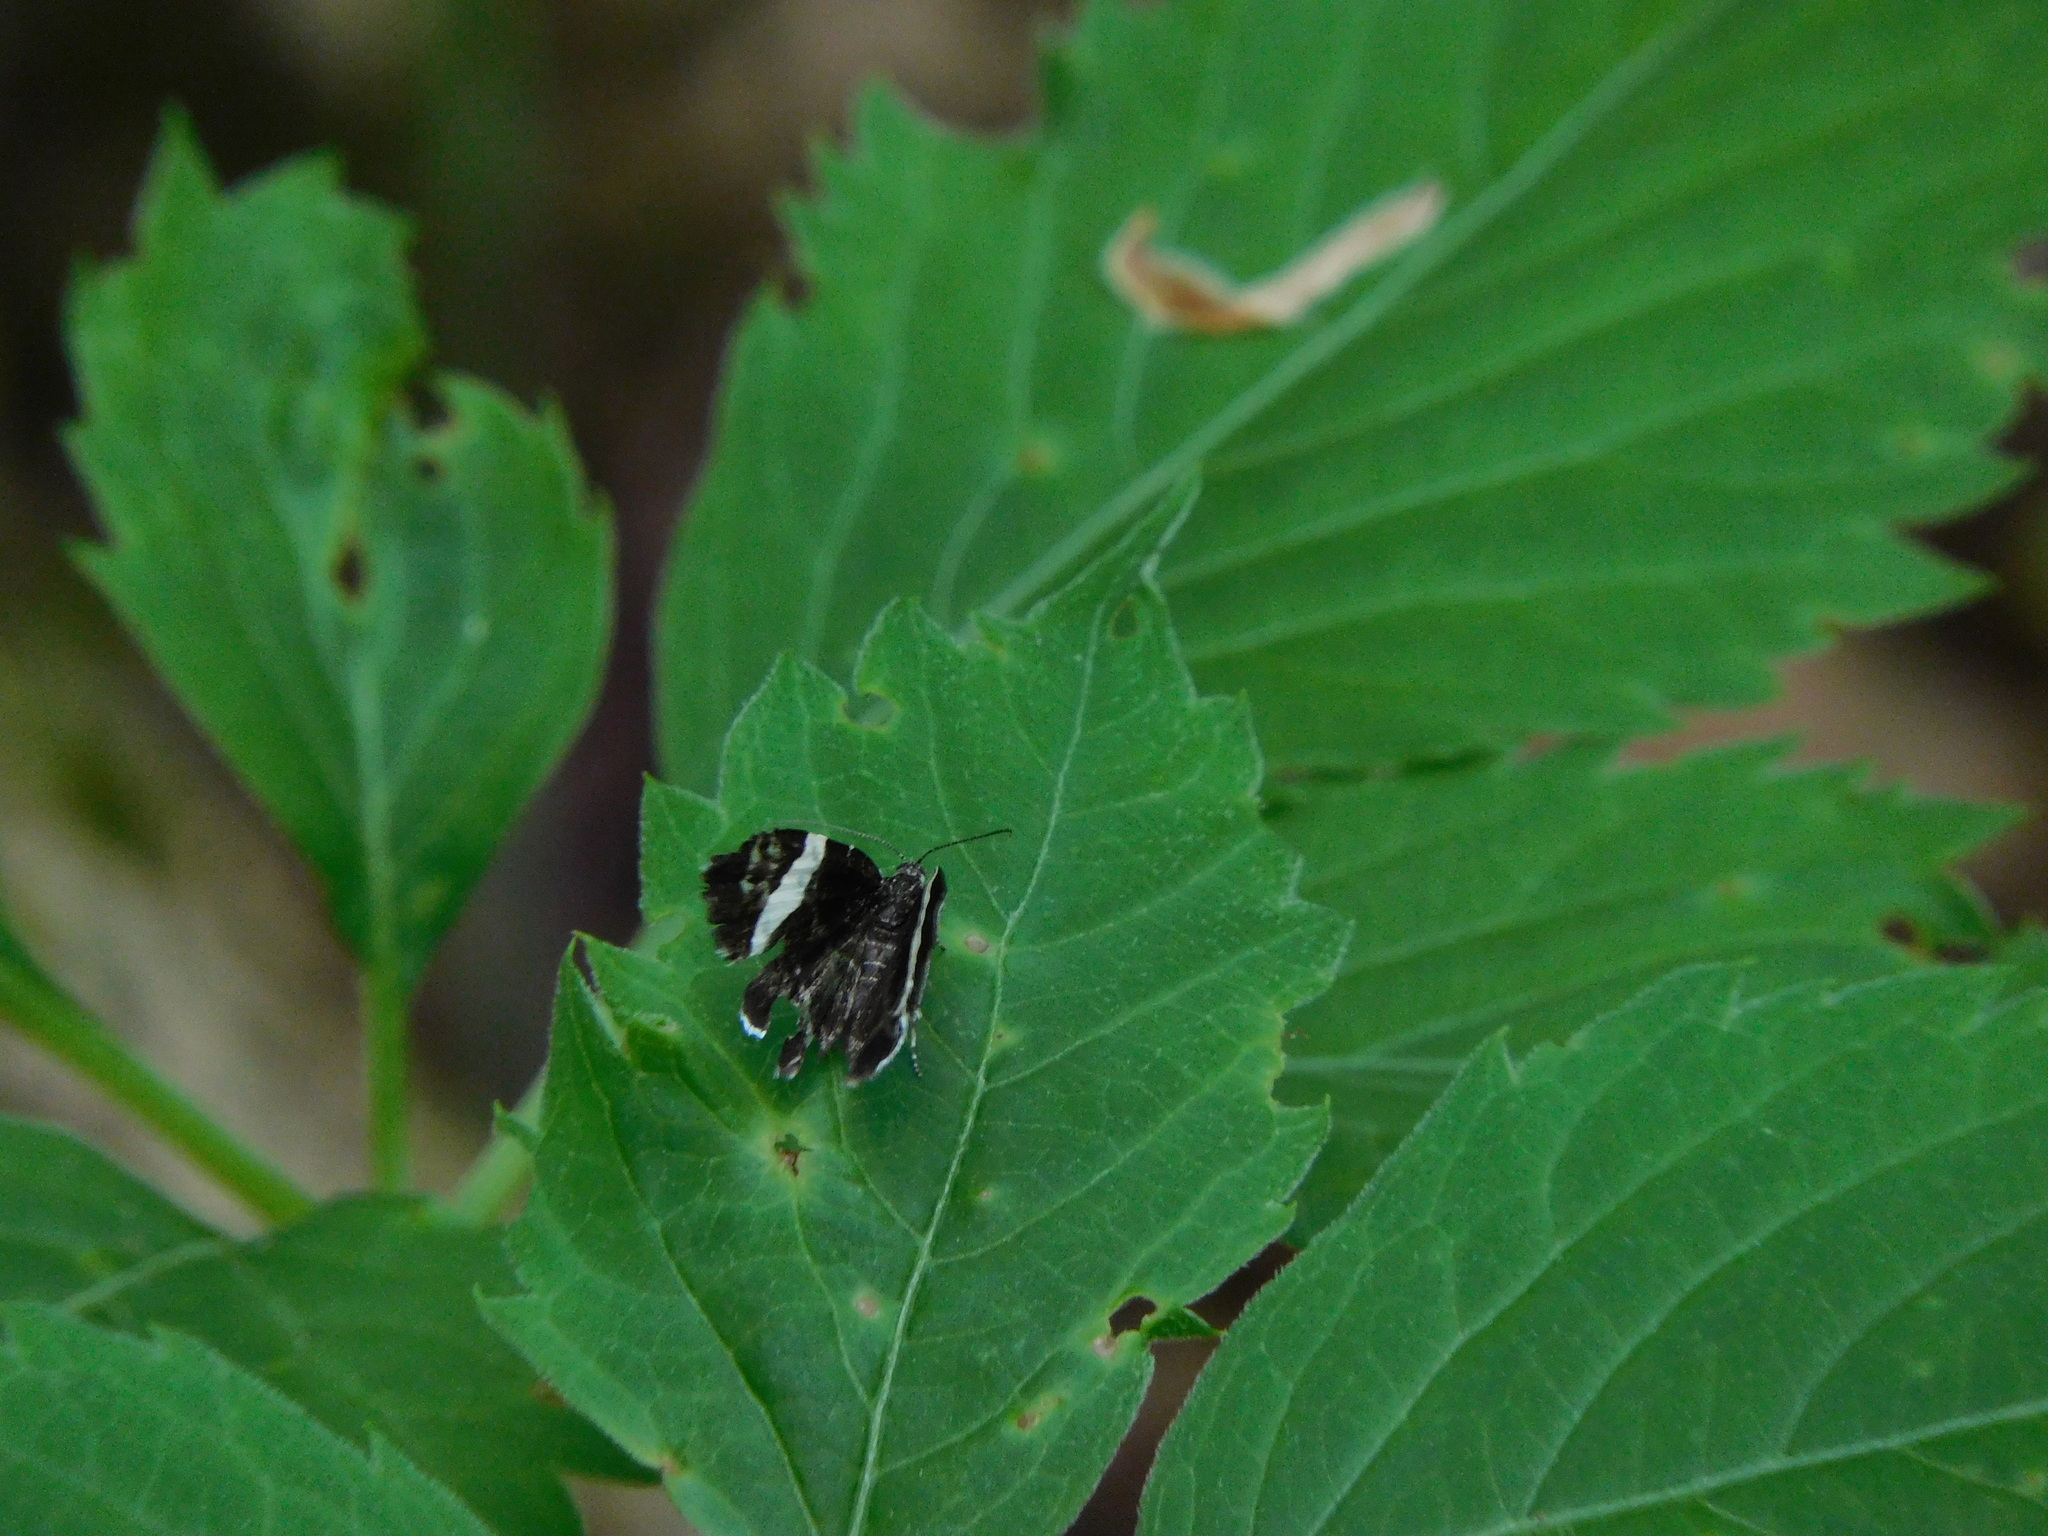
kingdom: Animalia
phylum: Arthropoda
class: Insecta
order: Lepidoptera
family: Geometridae
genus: Trichodezia
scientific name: Trichodezia albovittata
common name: White striped black
